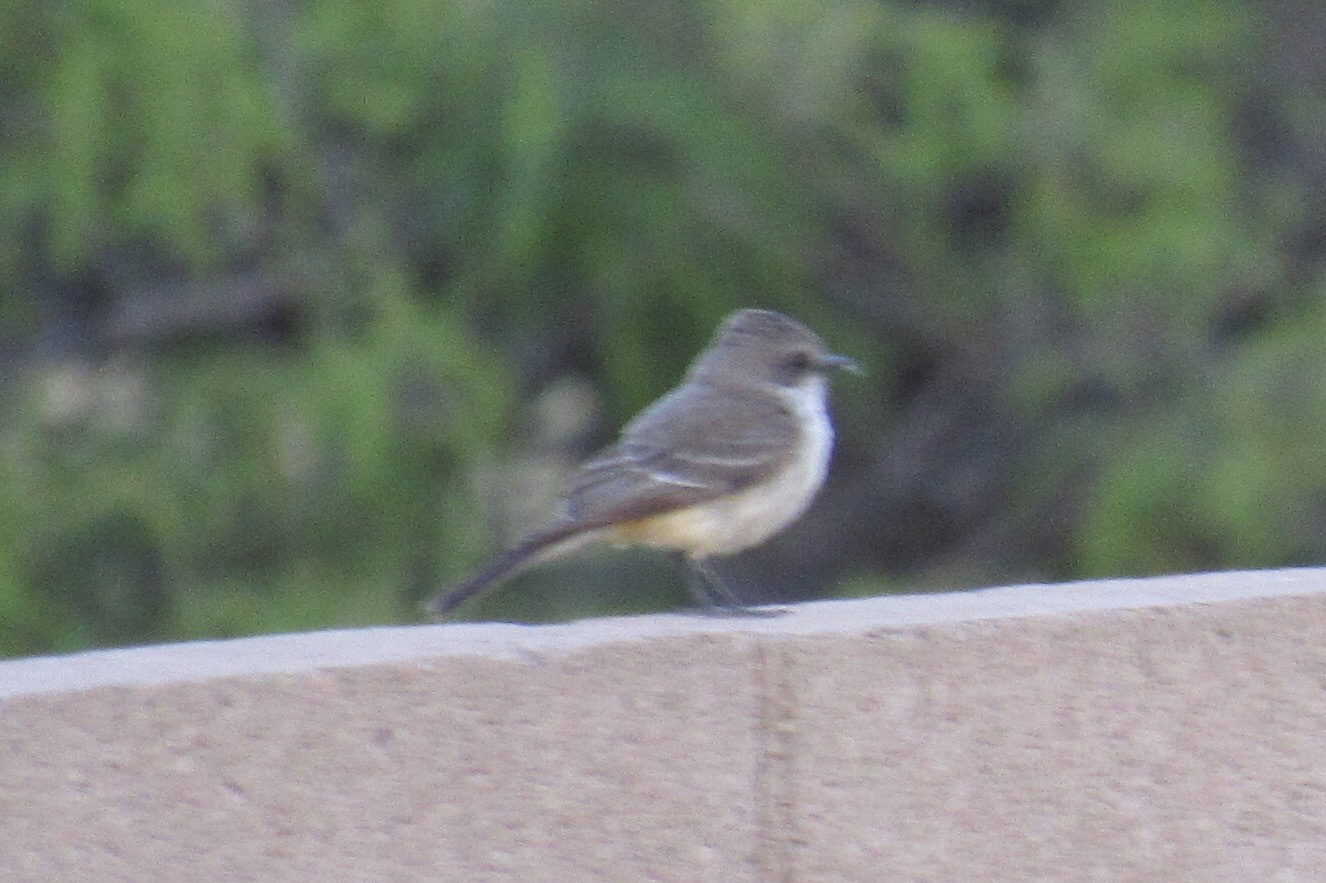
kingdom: Animalia
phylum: Chordata
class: Aves
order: Passeriformes
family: Tyrannidae
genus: Pyrocephalus
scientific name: Pyrocephalus rubinus
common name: Vermilion flycatcher
